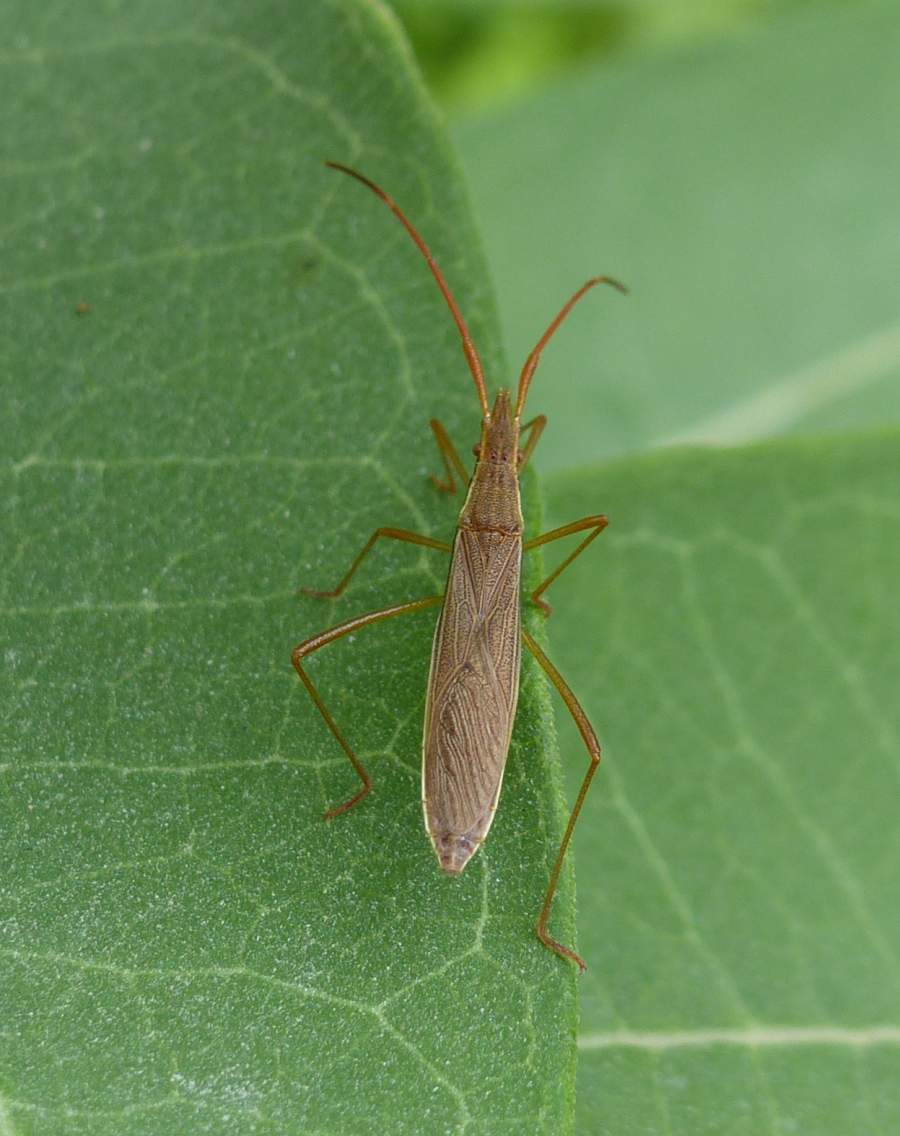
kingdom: Animalia
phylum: Arthropoda
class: Insecta
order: Hemiptera
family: Alydidae
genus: Protenor
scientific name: Protenor belfragei
